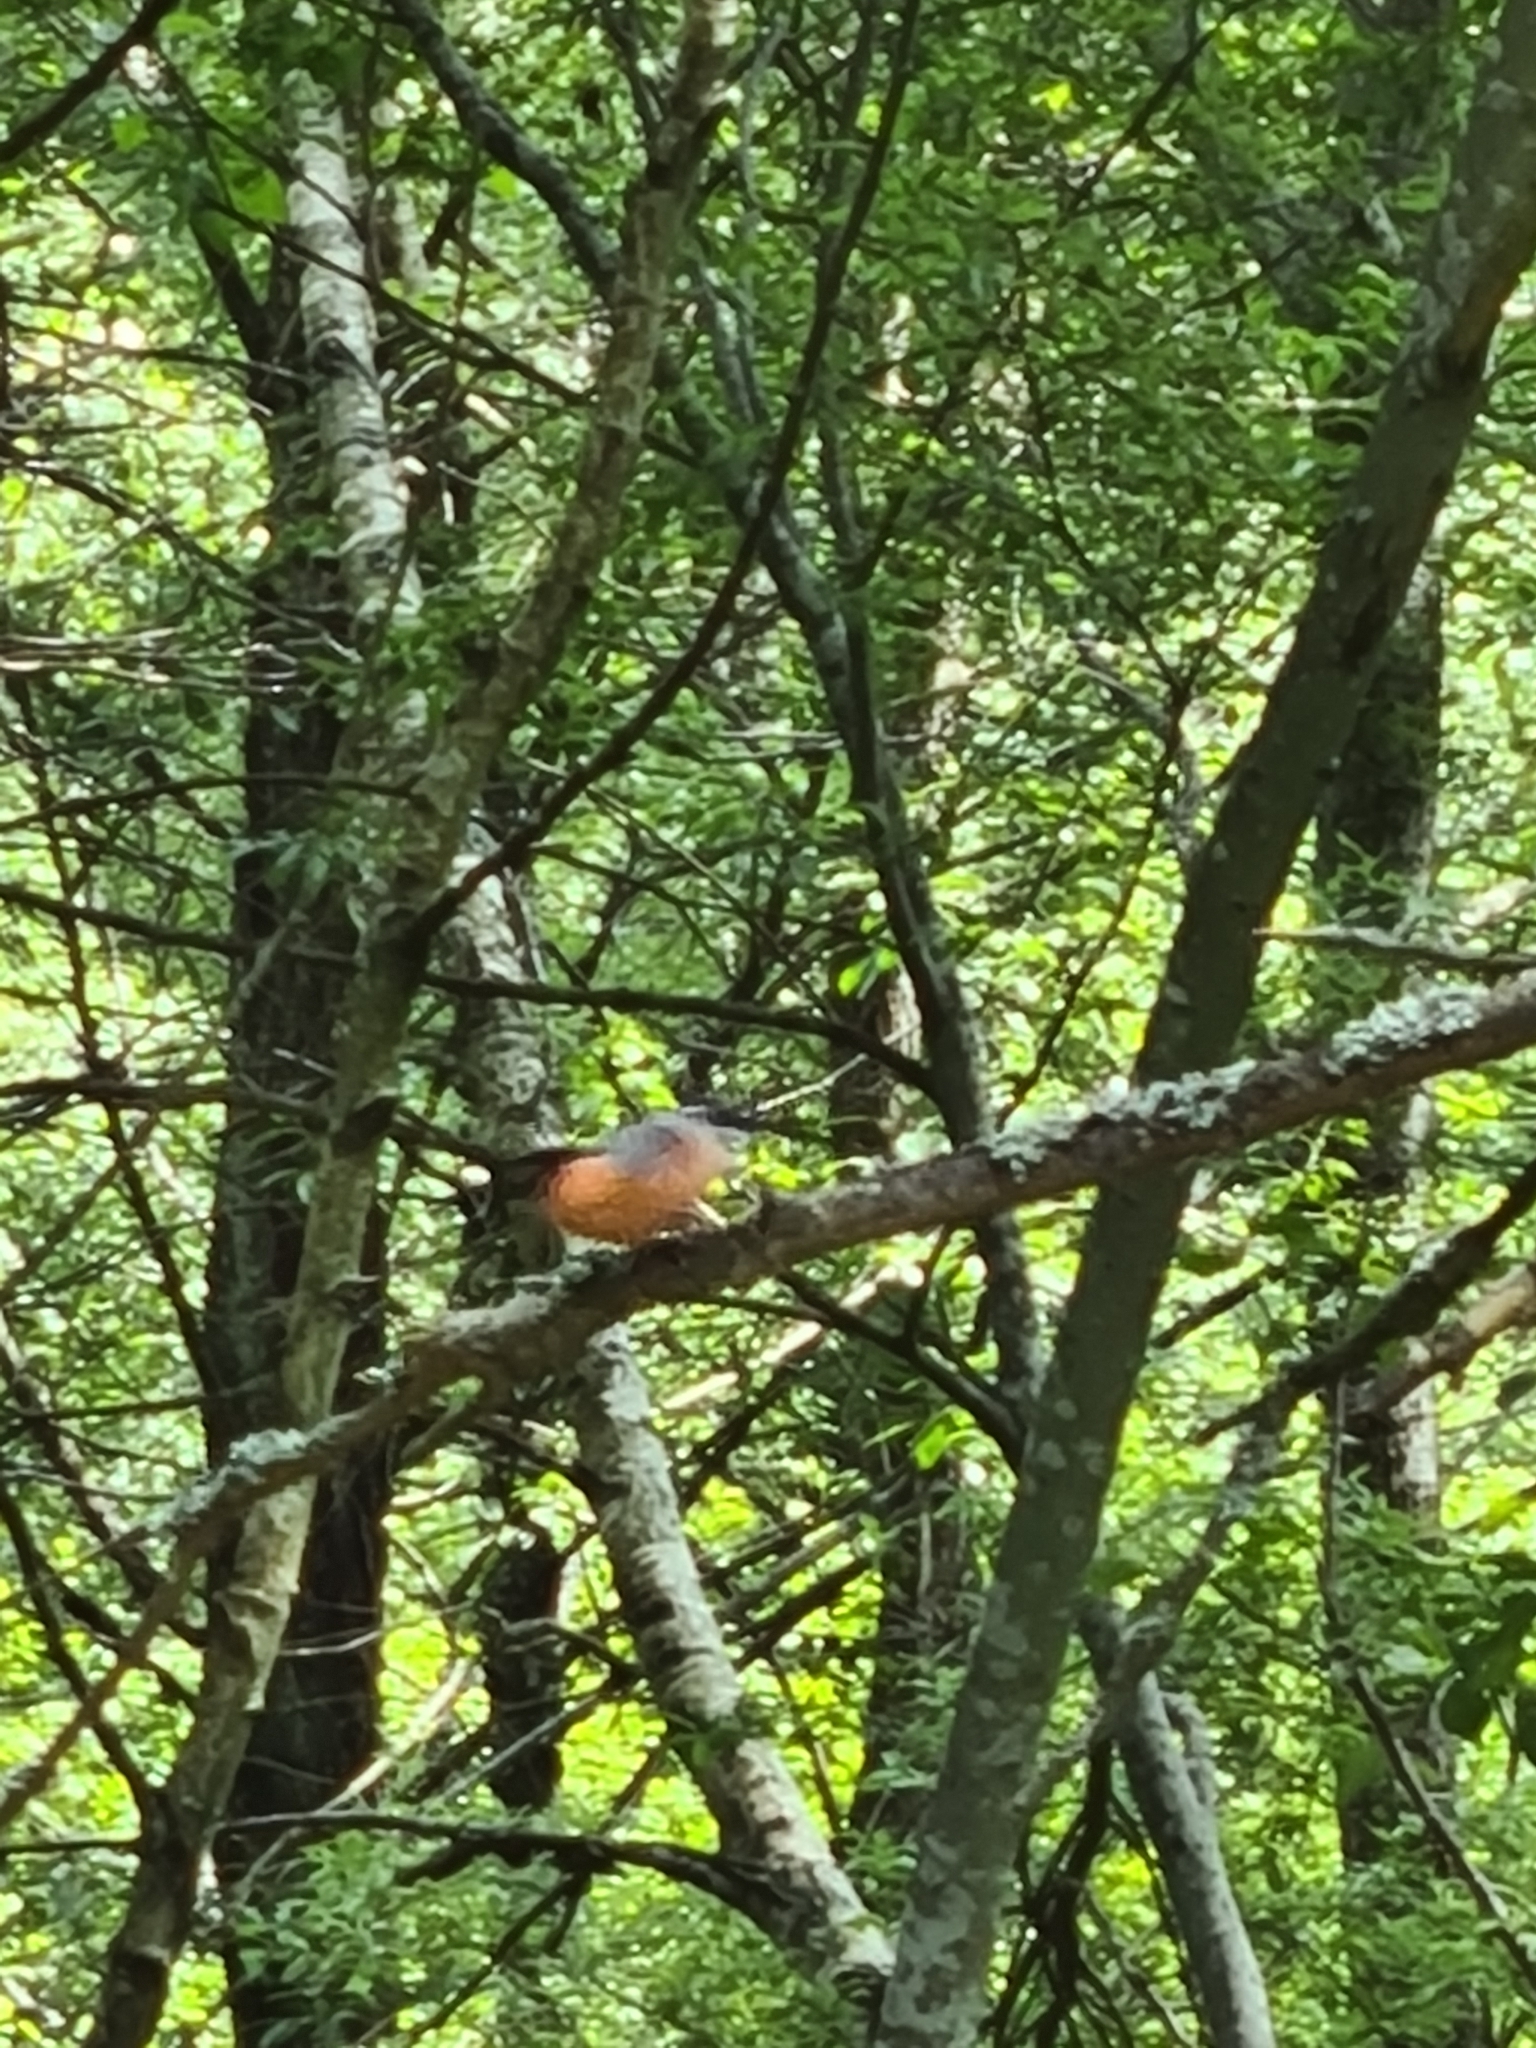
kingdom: Animalia
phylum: Chordata
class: Aves
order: Passeriformes
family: Fringillidae
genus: Pyrrhula
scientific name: Pyrrhula pyrrhula
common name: Eurasian bullfinch
